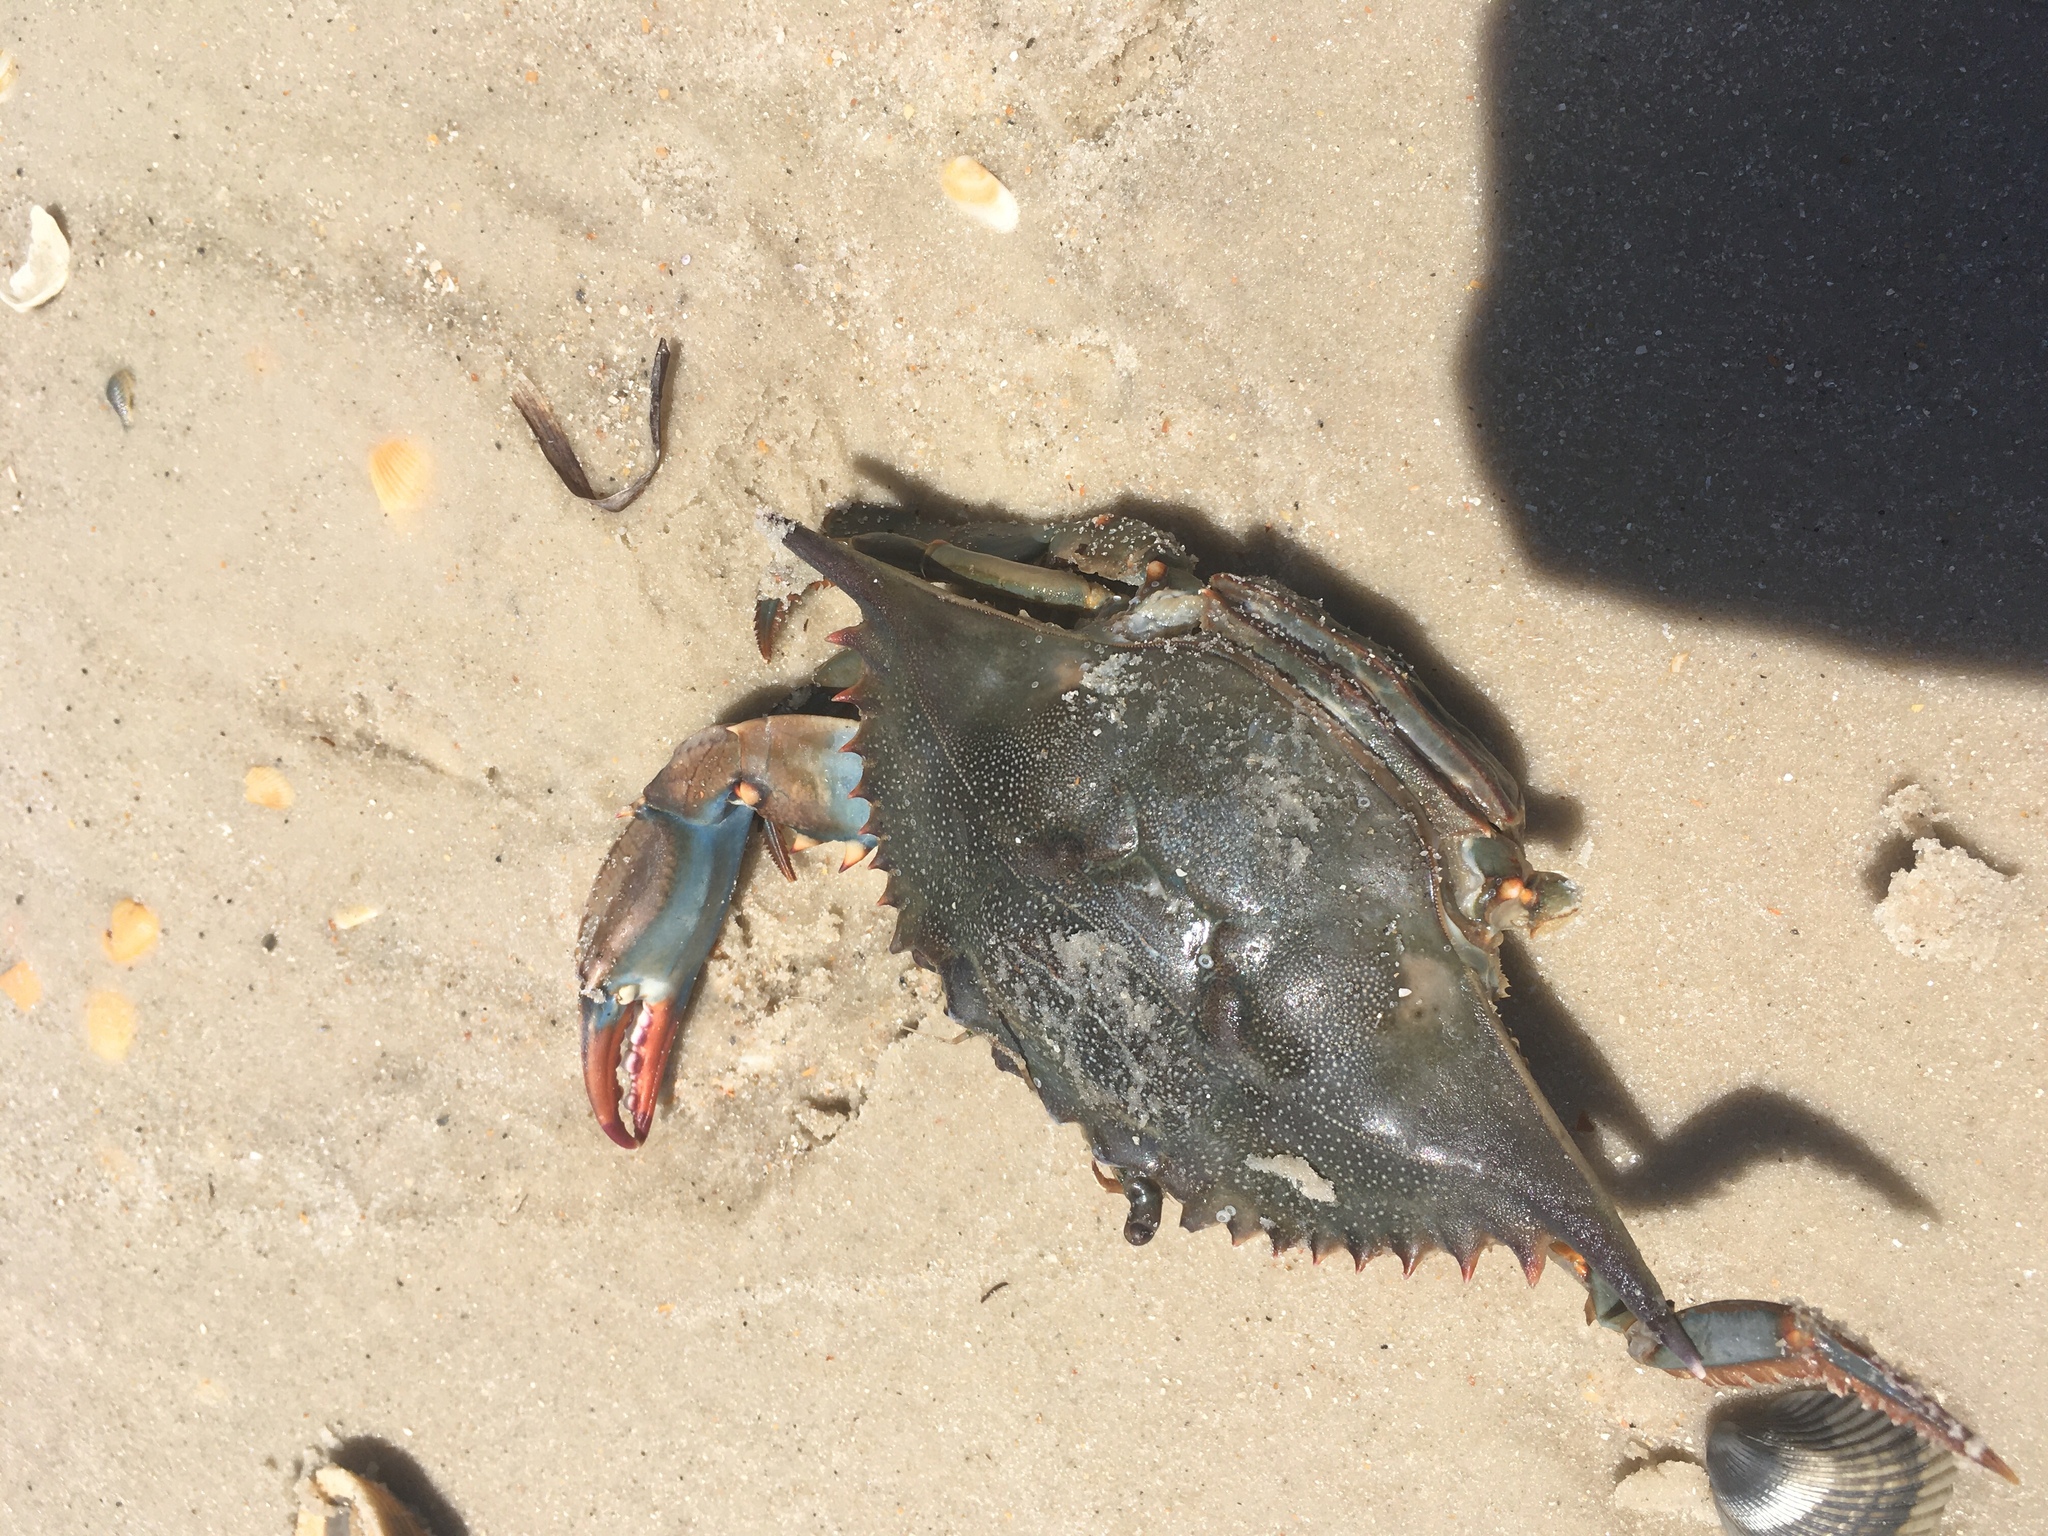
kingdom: Animalia
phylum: Arthropoda
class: Malacostraca
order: Decapoda
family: Portunidae
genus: Callinectes
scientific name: Callinectes sapidus
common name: Blue crab
